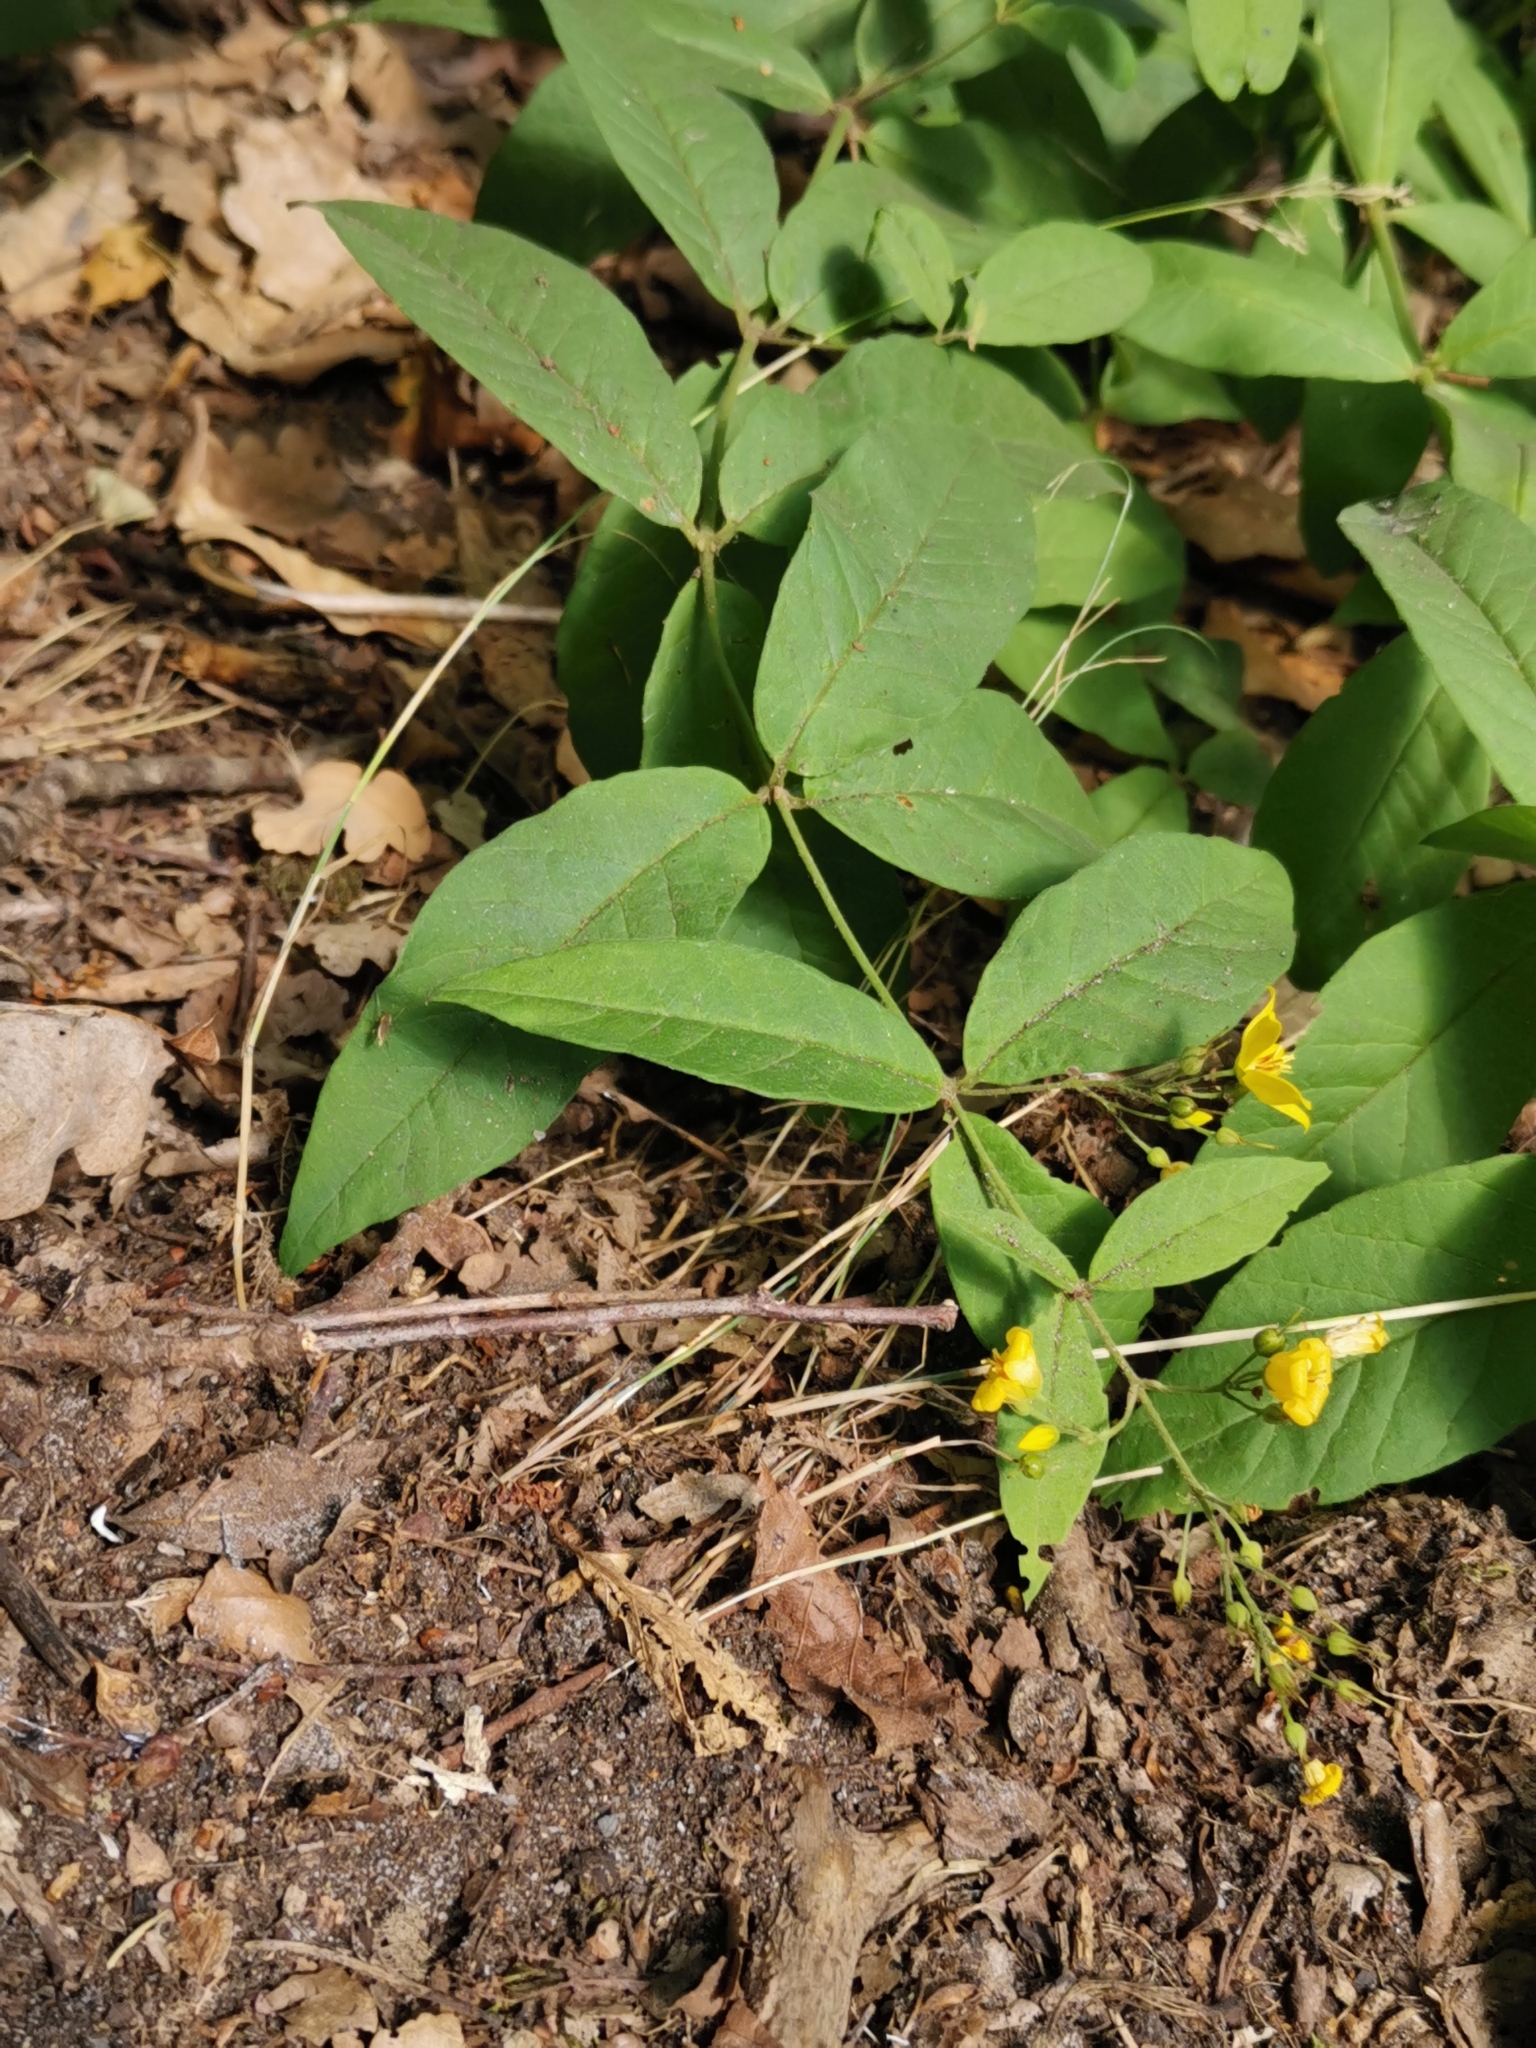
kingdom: Plantae
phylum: Tracheophyta
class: Magnoliopsida
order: Ericales
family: Primulaceae
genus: Lysimachia
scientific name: Lysimachia vulgaris
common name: Yellow loosestrife
